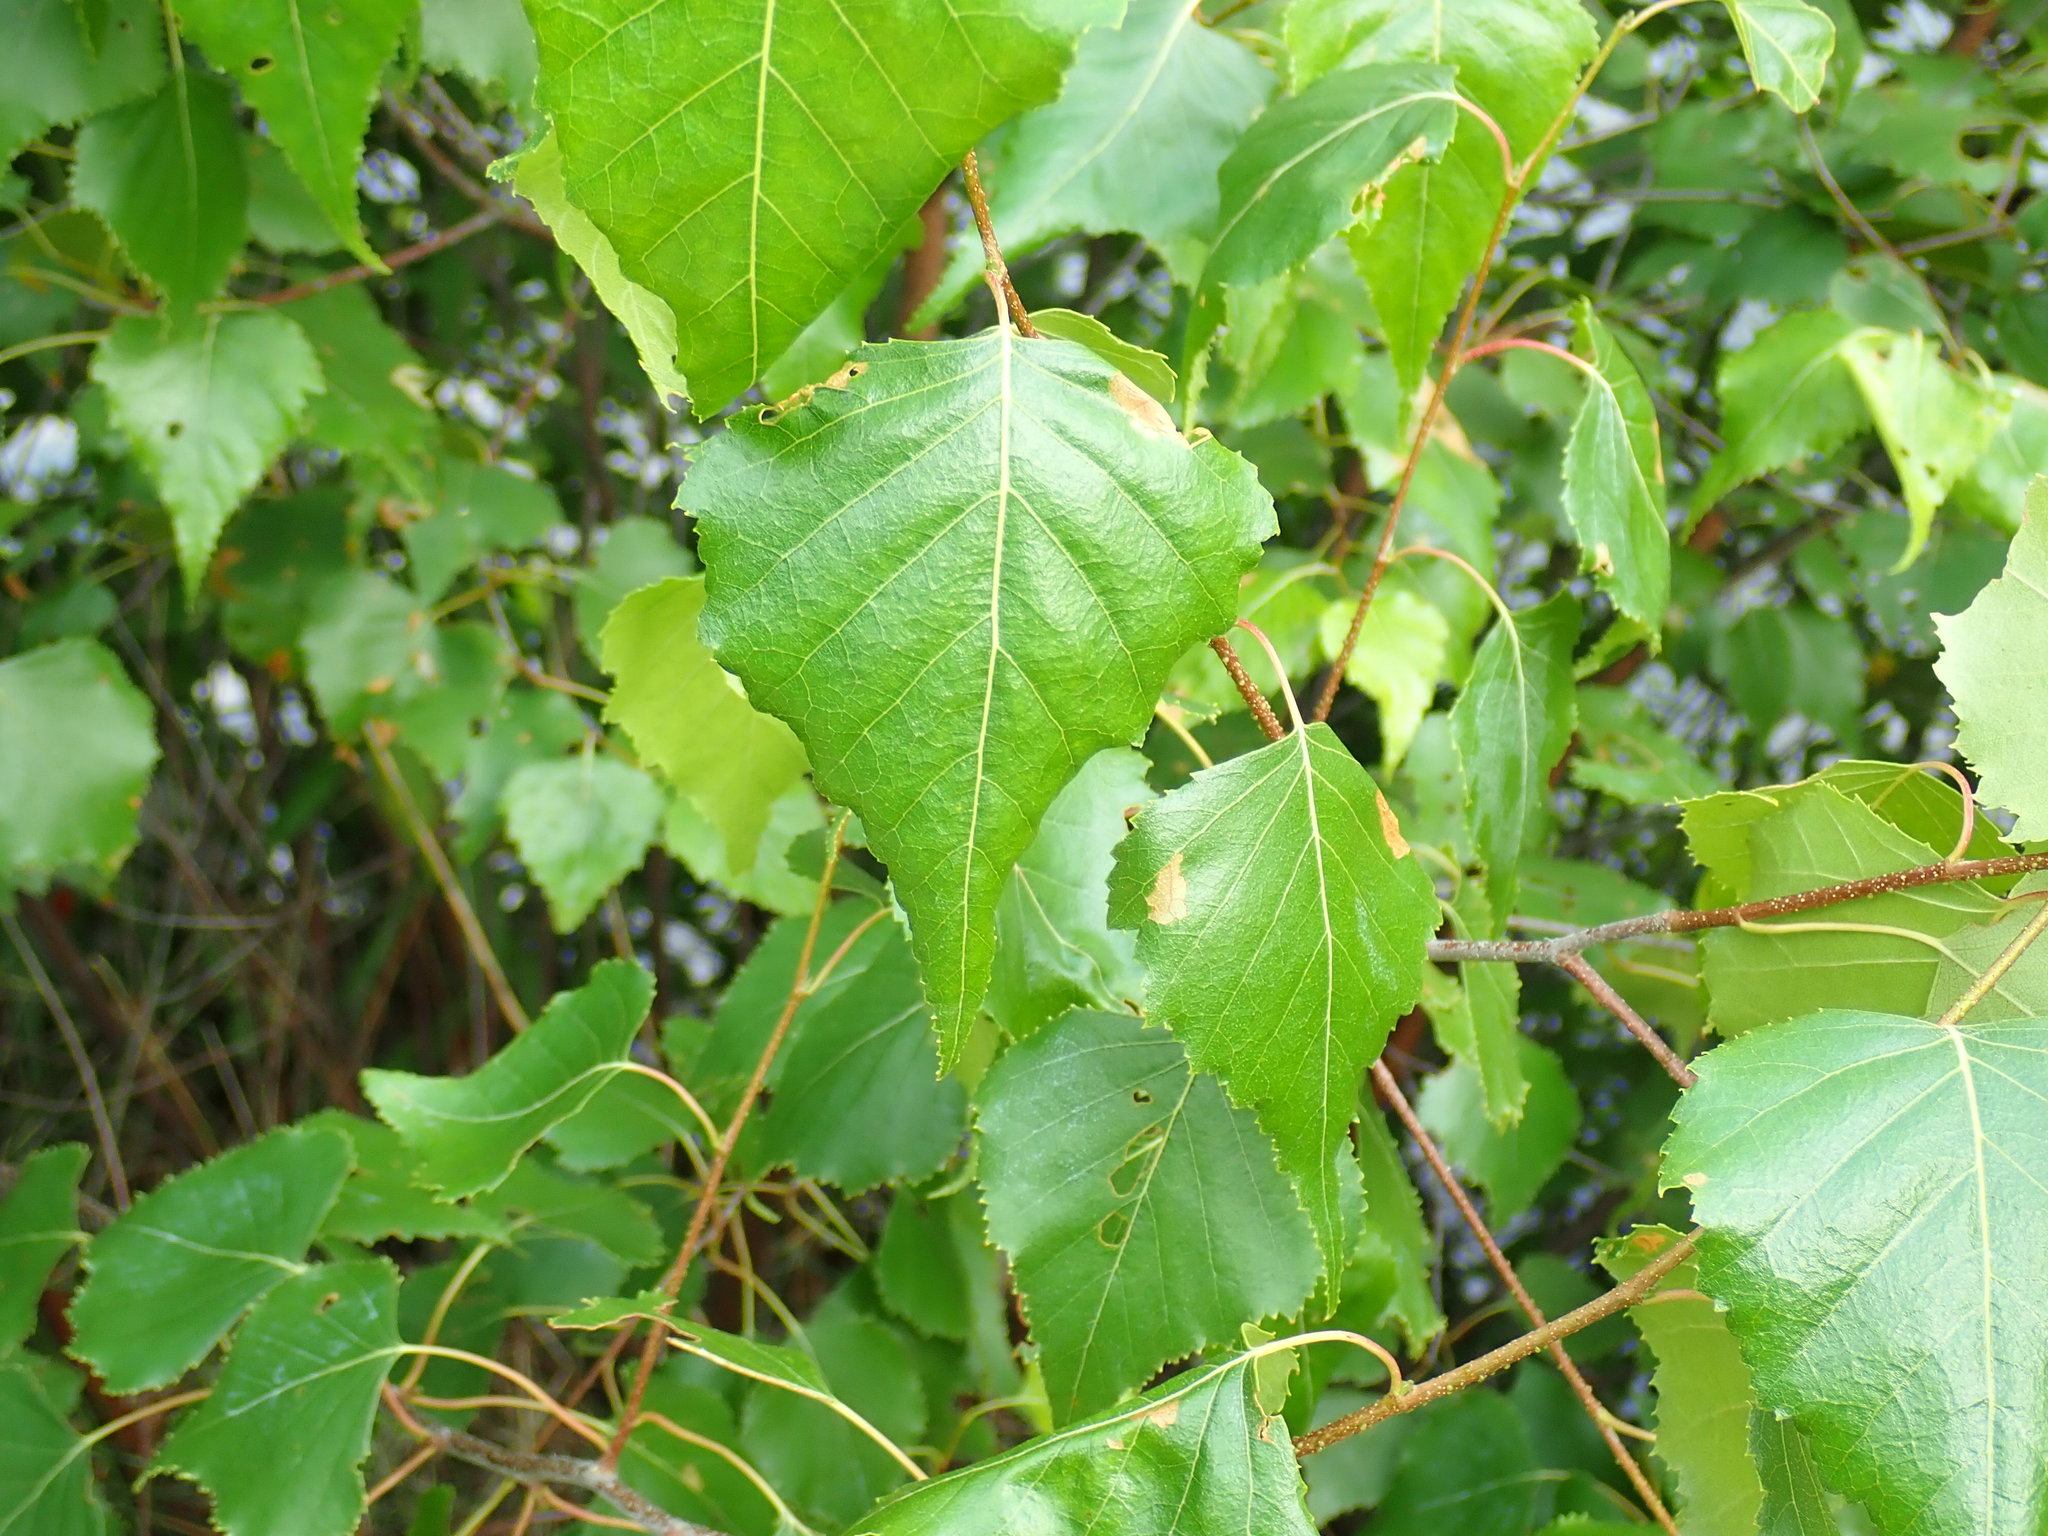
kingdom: Plantae
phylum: Tracheophyta
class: Magnoliopsida
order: Fagales
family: Betulaceae
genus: Betula
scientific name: Betula populifolia
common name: Fire birch
